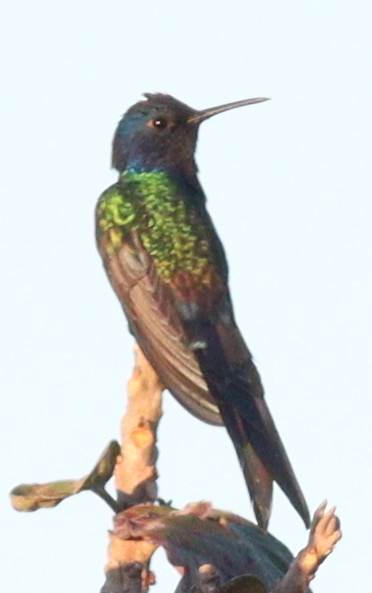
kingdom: Animalia
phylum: Chordata
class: Aves
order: Apodiformes
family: Trochilidae
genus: Eupetomena
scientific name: Eupetomena macroura
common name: Swallow-tailed hummingbird
